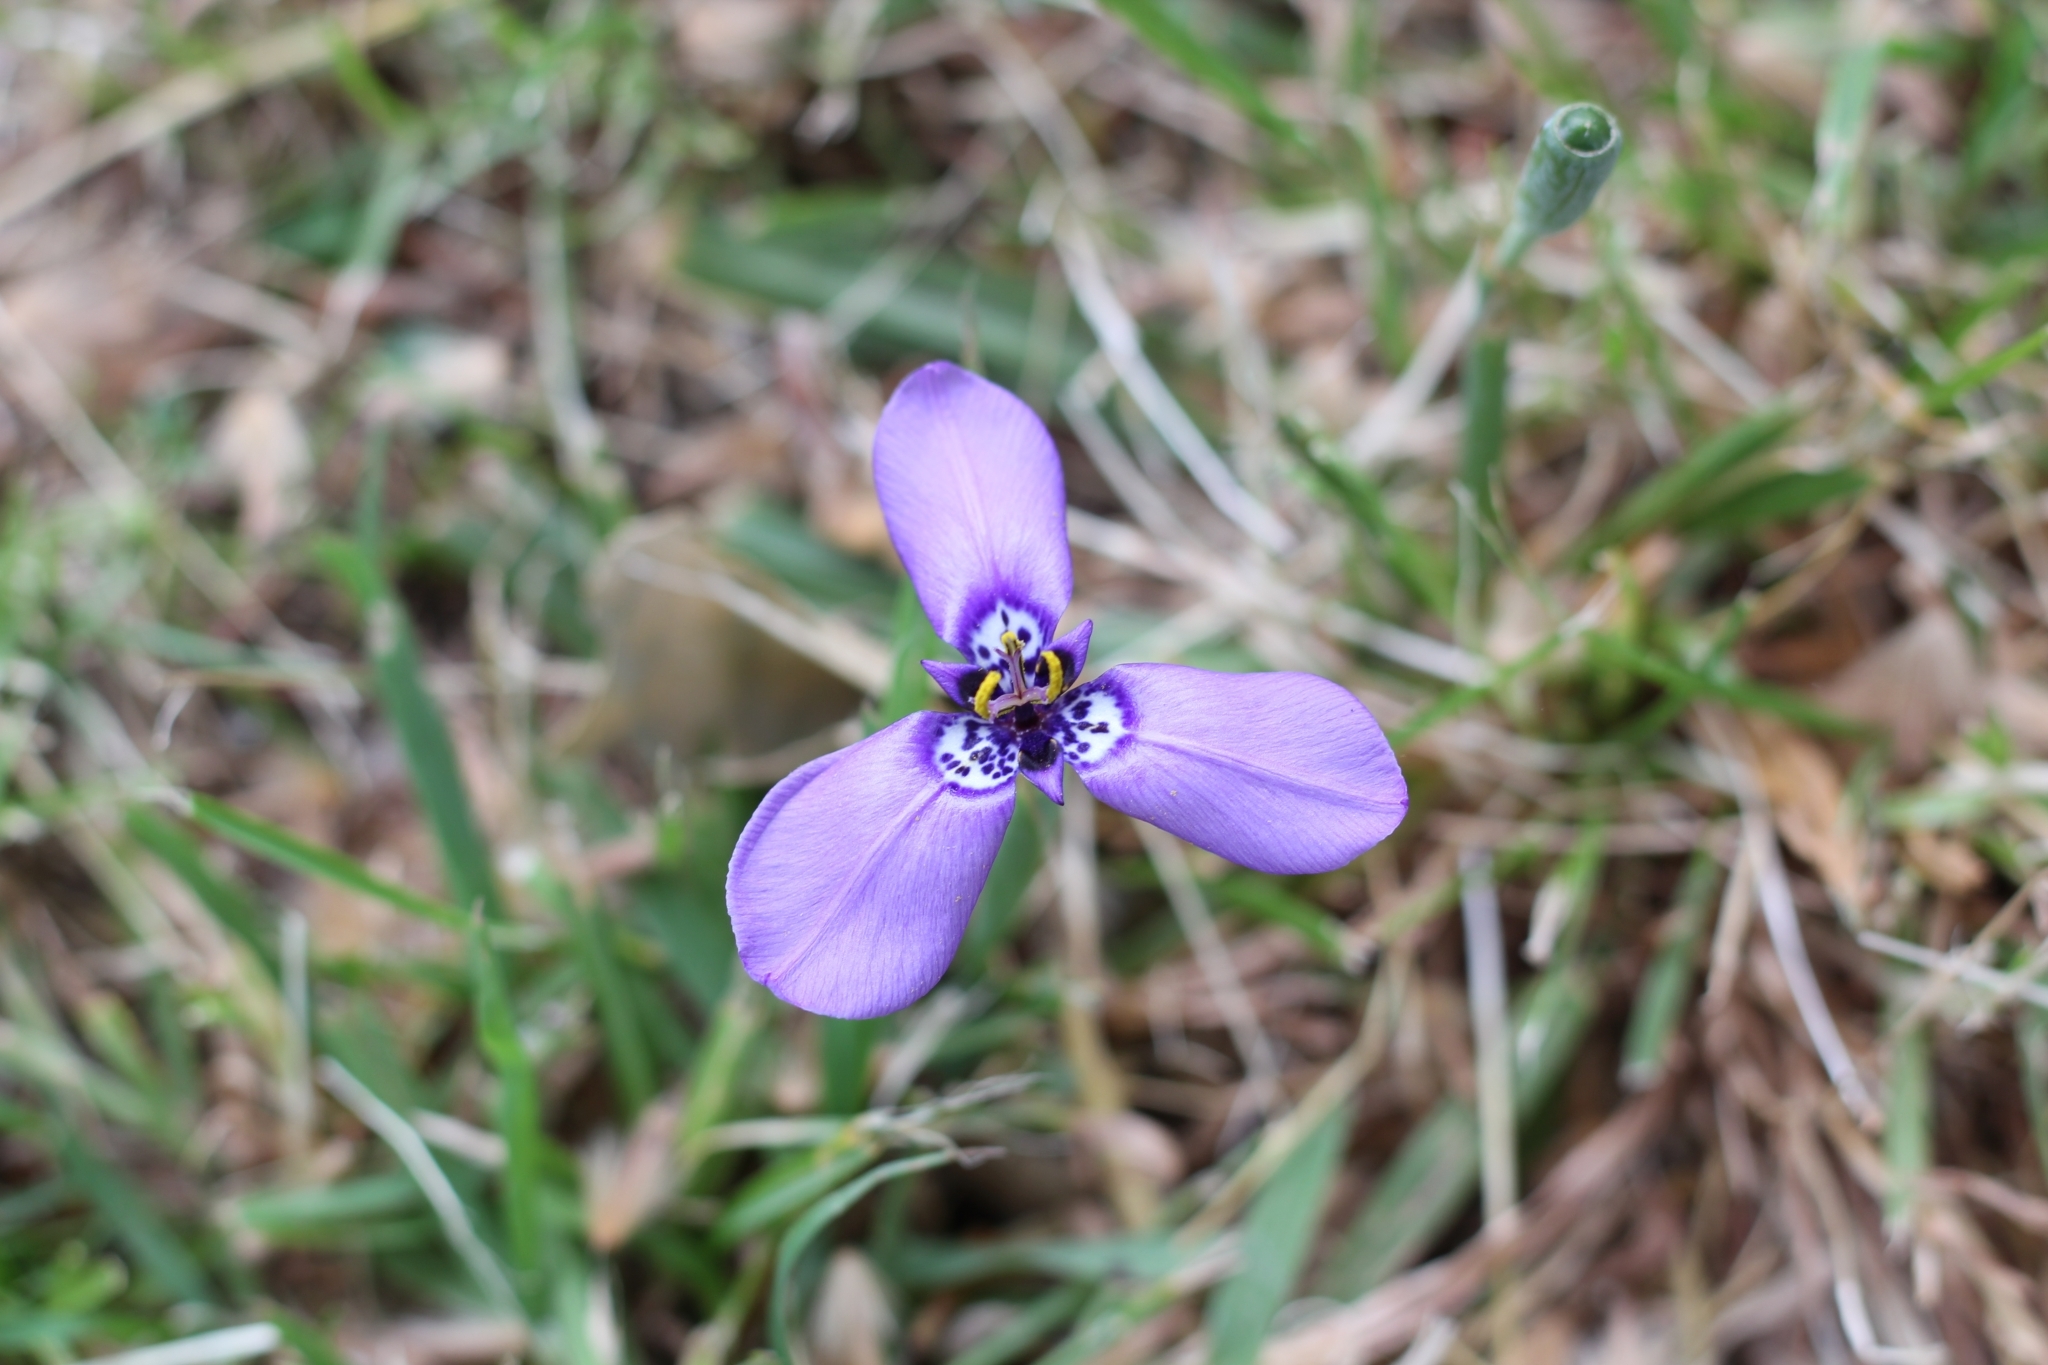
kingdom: Plantae
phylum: Tracheophyta
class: Liliopsida
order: Asparagales
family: Iridaceae
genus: Herbertia
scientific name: Herbertia lahue
